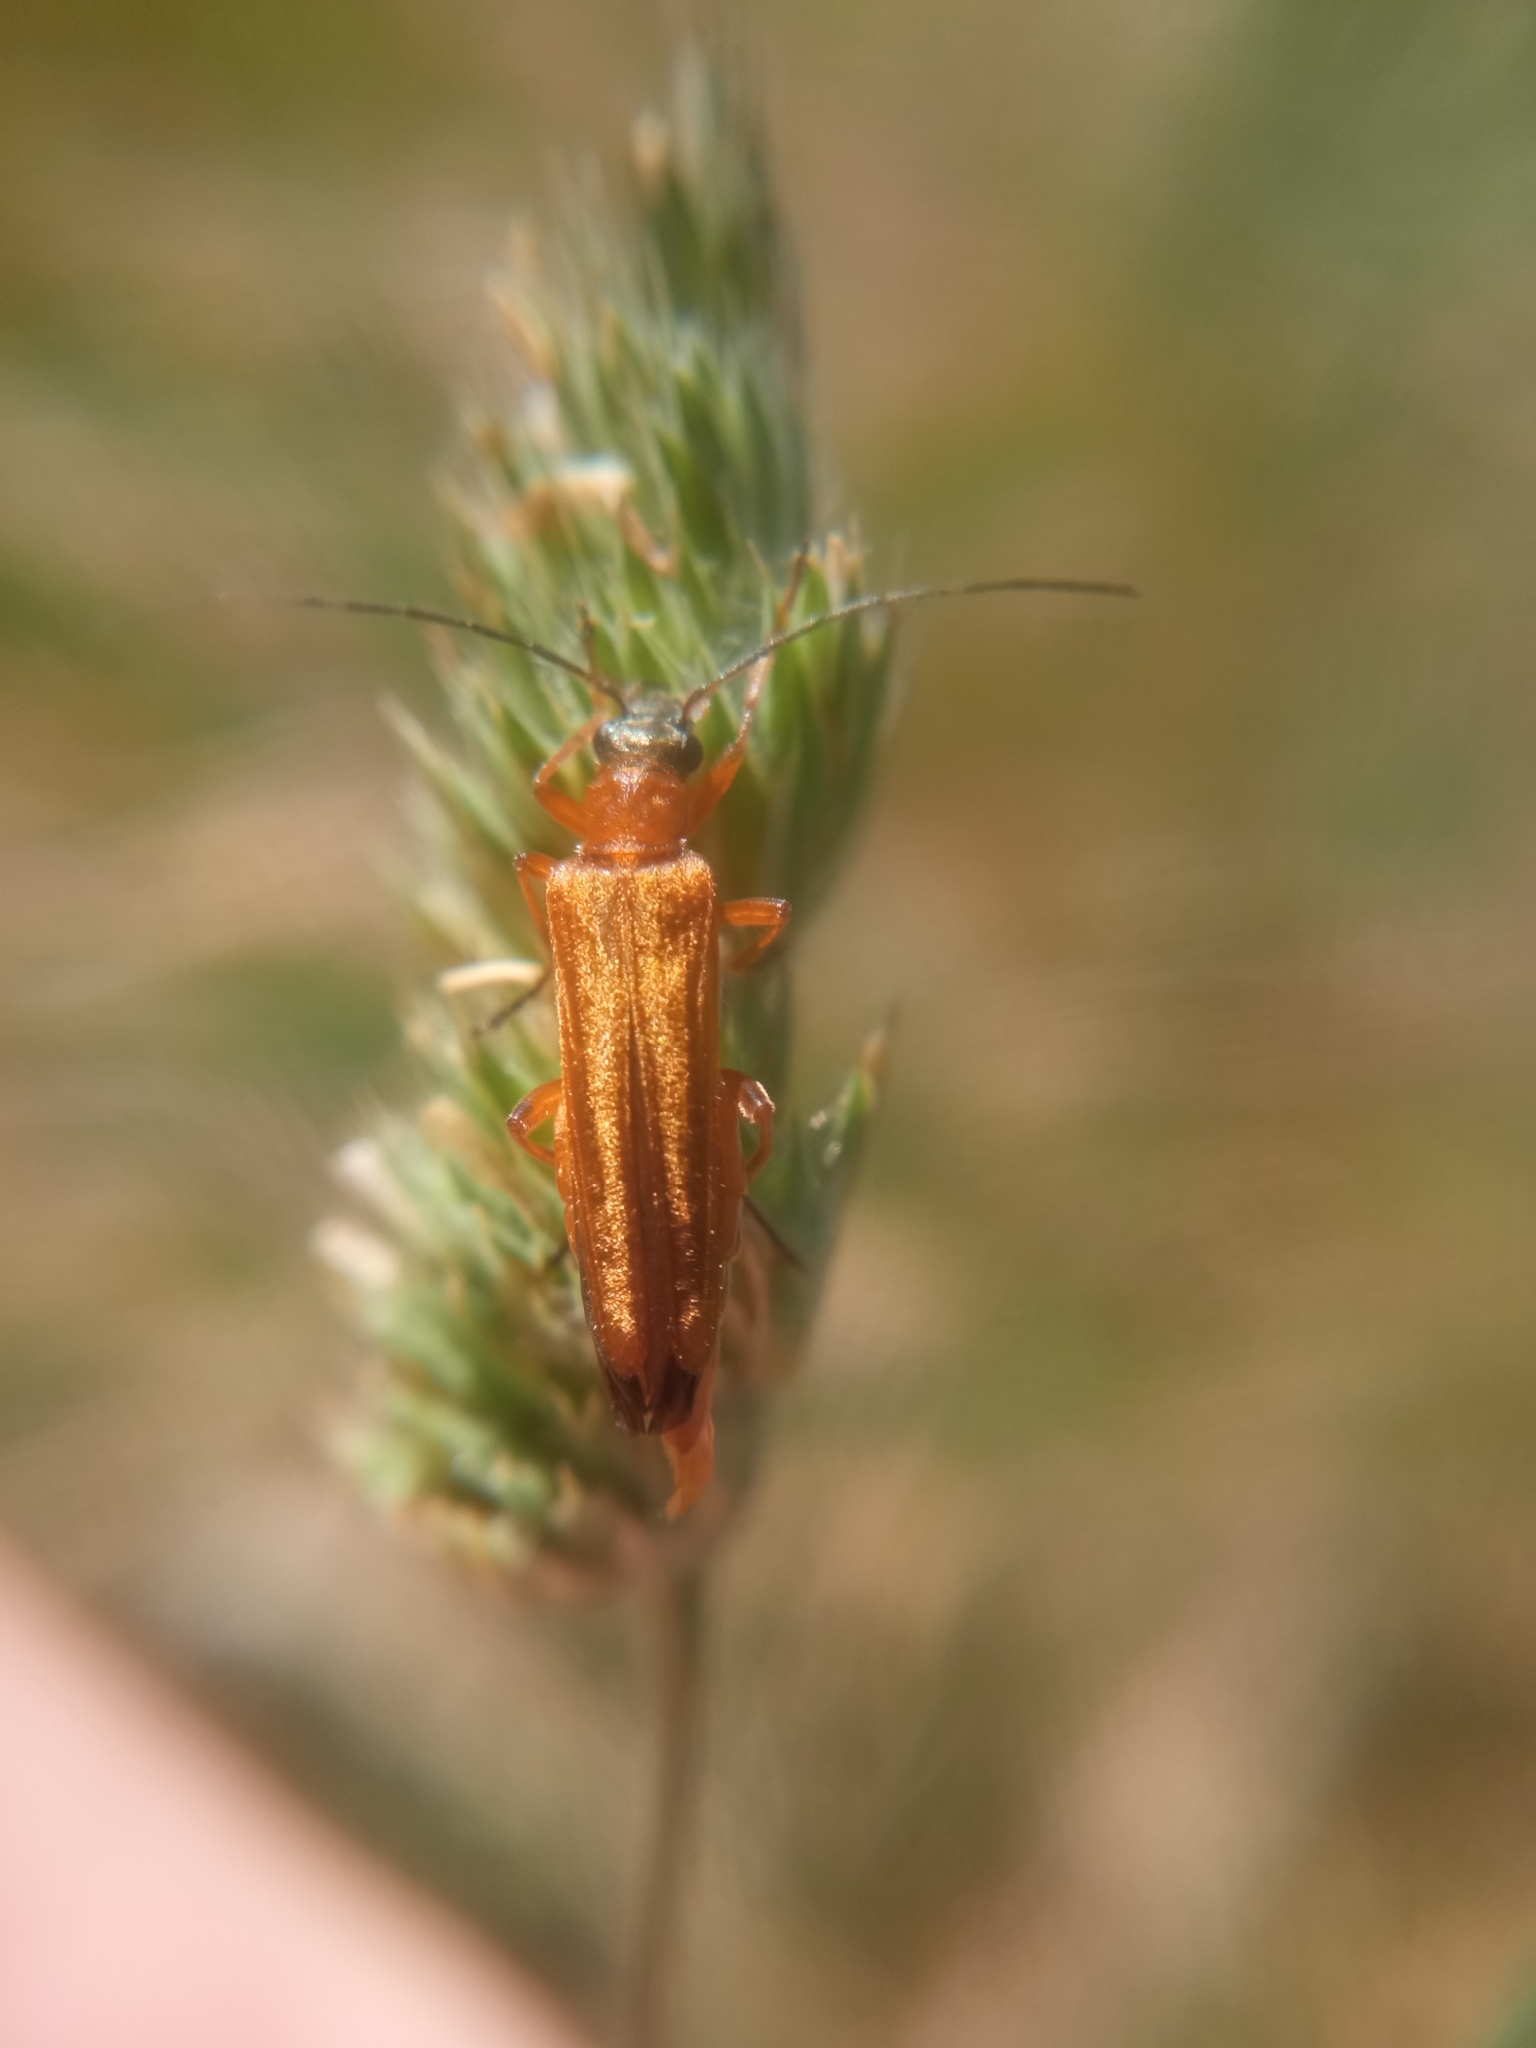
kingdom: Animalia
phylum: Arthropoda
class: Insecta
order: Coleoptera
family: Oedemeridae
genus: Oedemera
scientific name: Oedemera podagrariae
